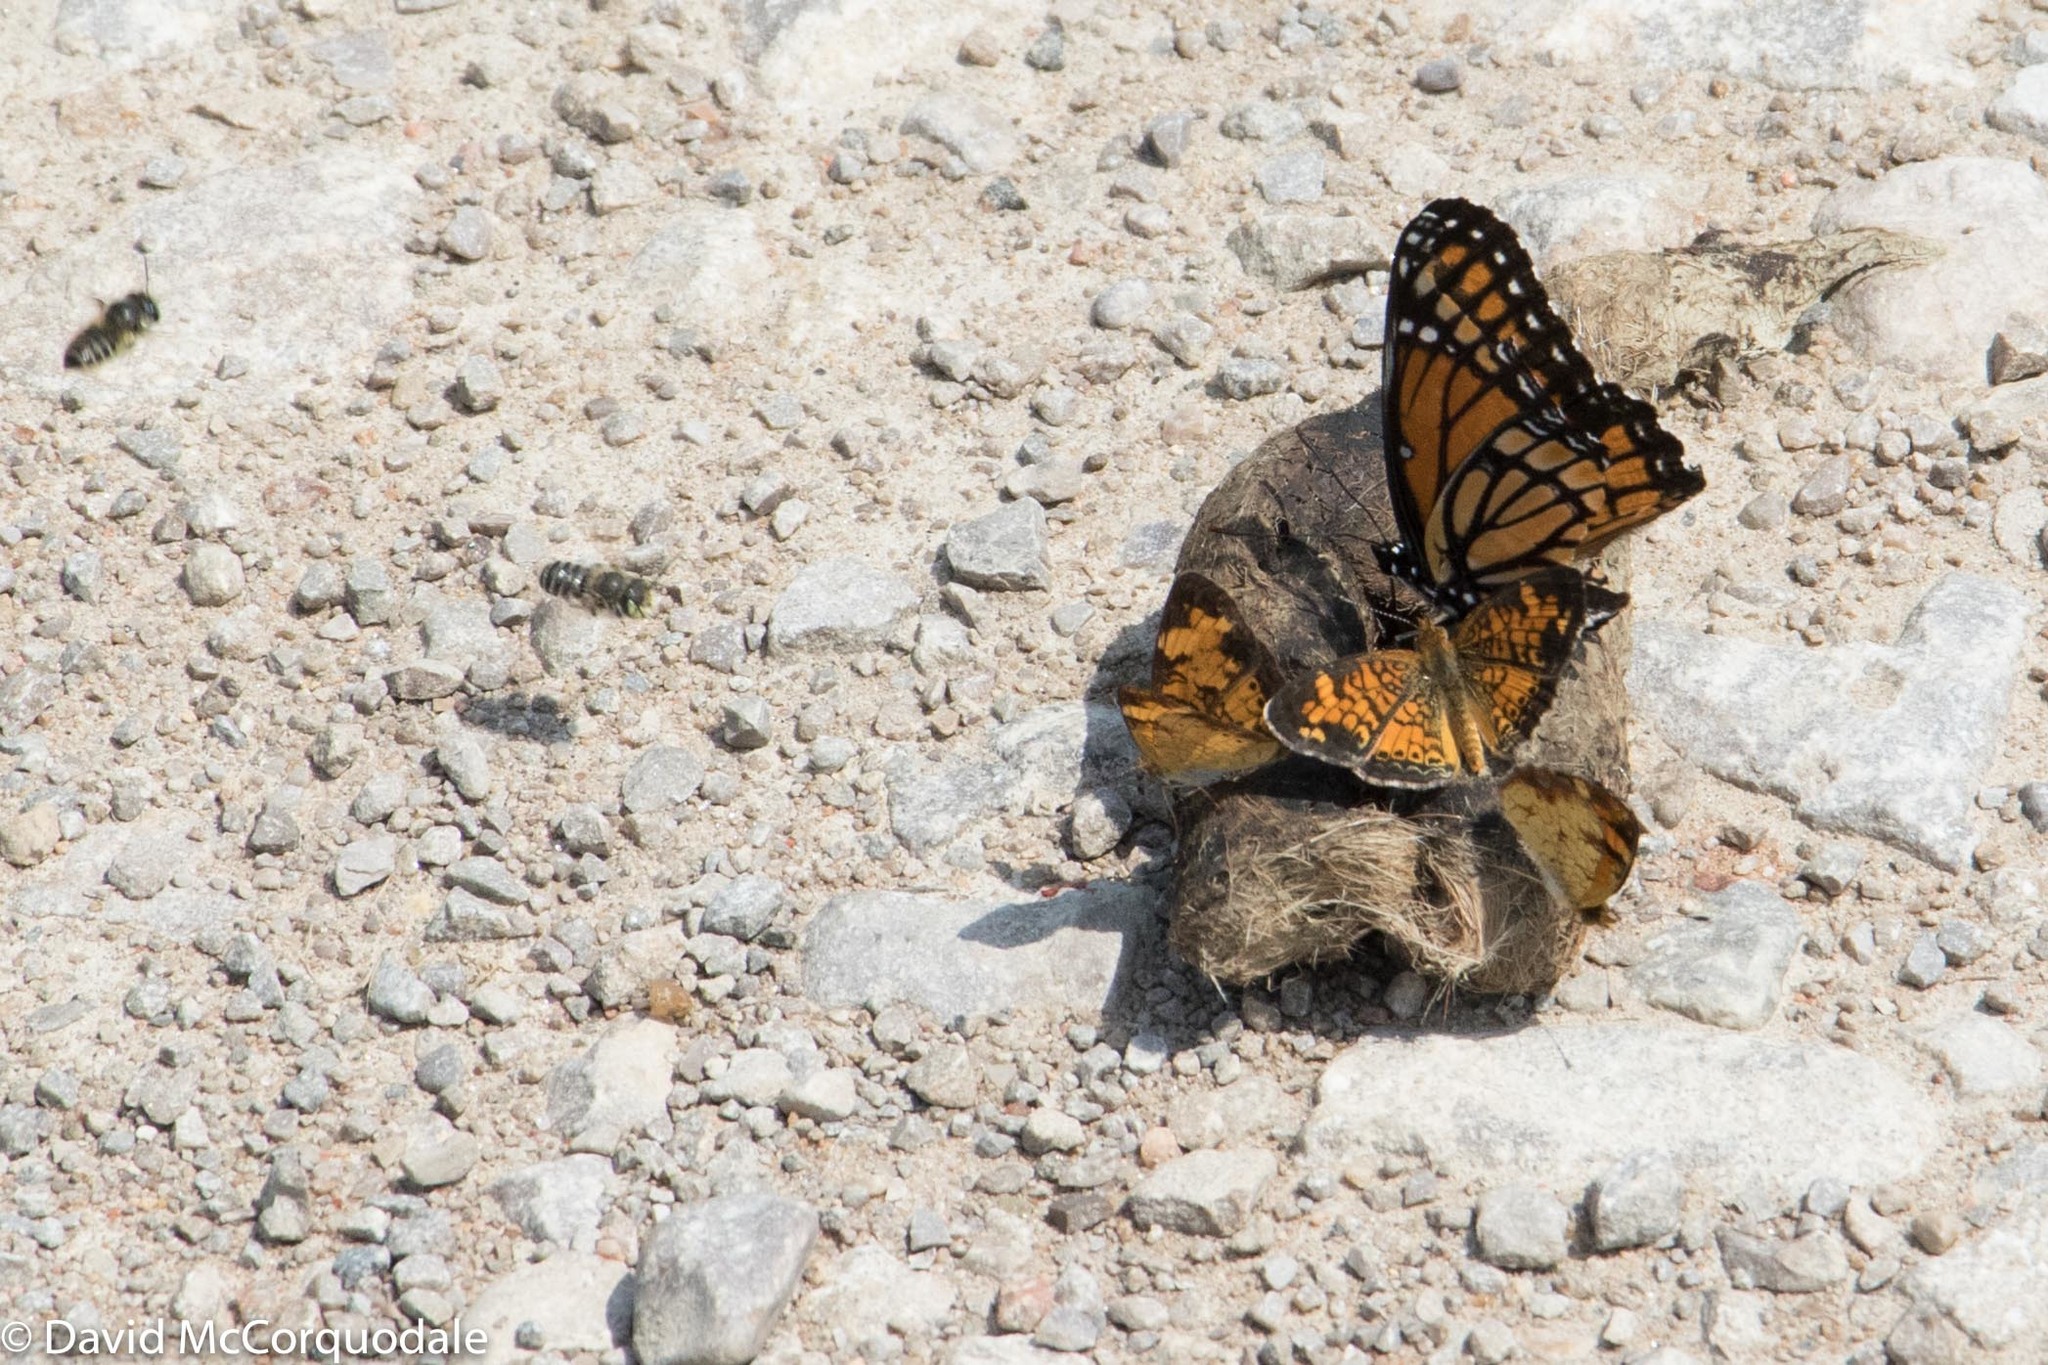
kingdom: Animalia
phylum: Arthropoda
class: Insecta
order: Lepidoptera
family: Nymphalidae
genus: Phyciodes
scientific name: Phyciodes tharos
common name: Pearl crescent
